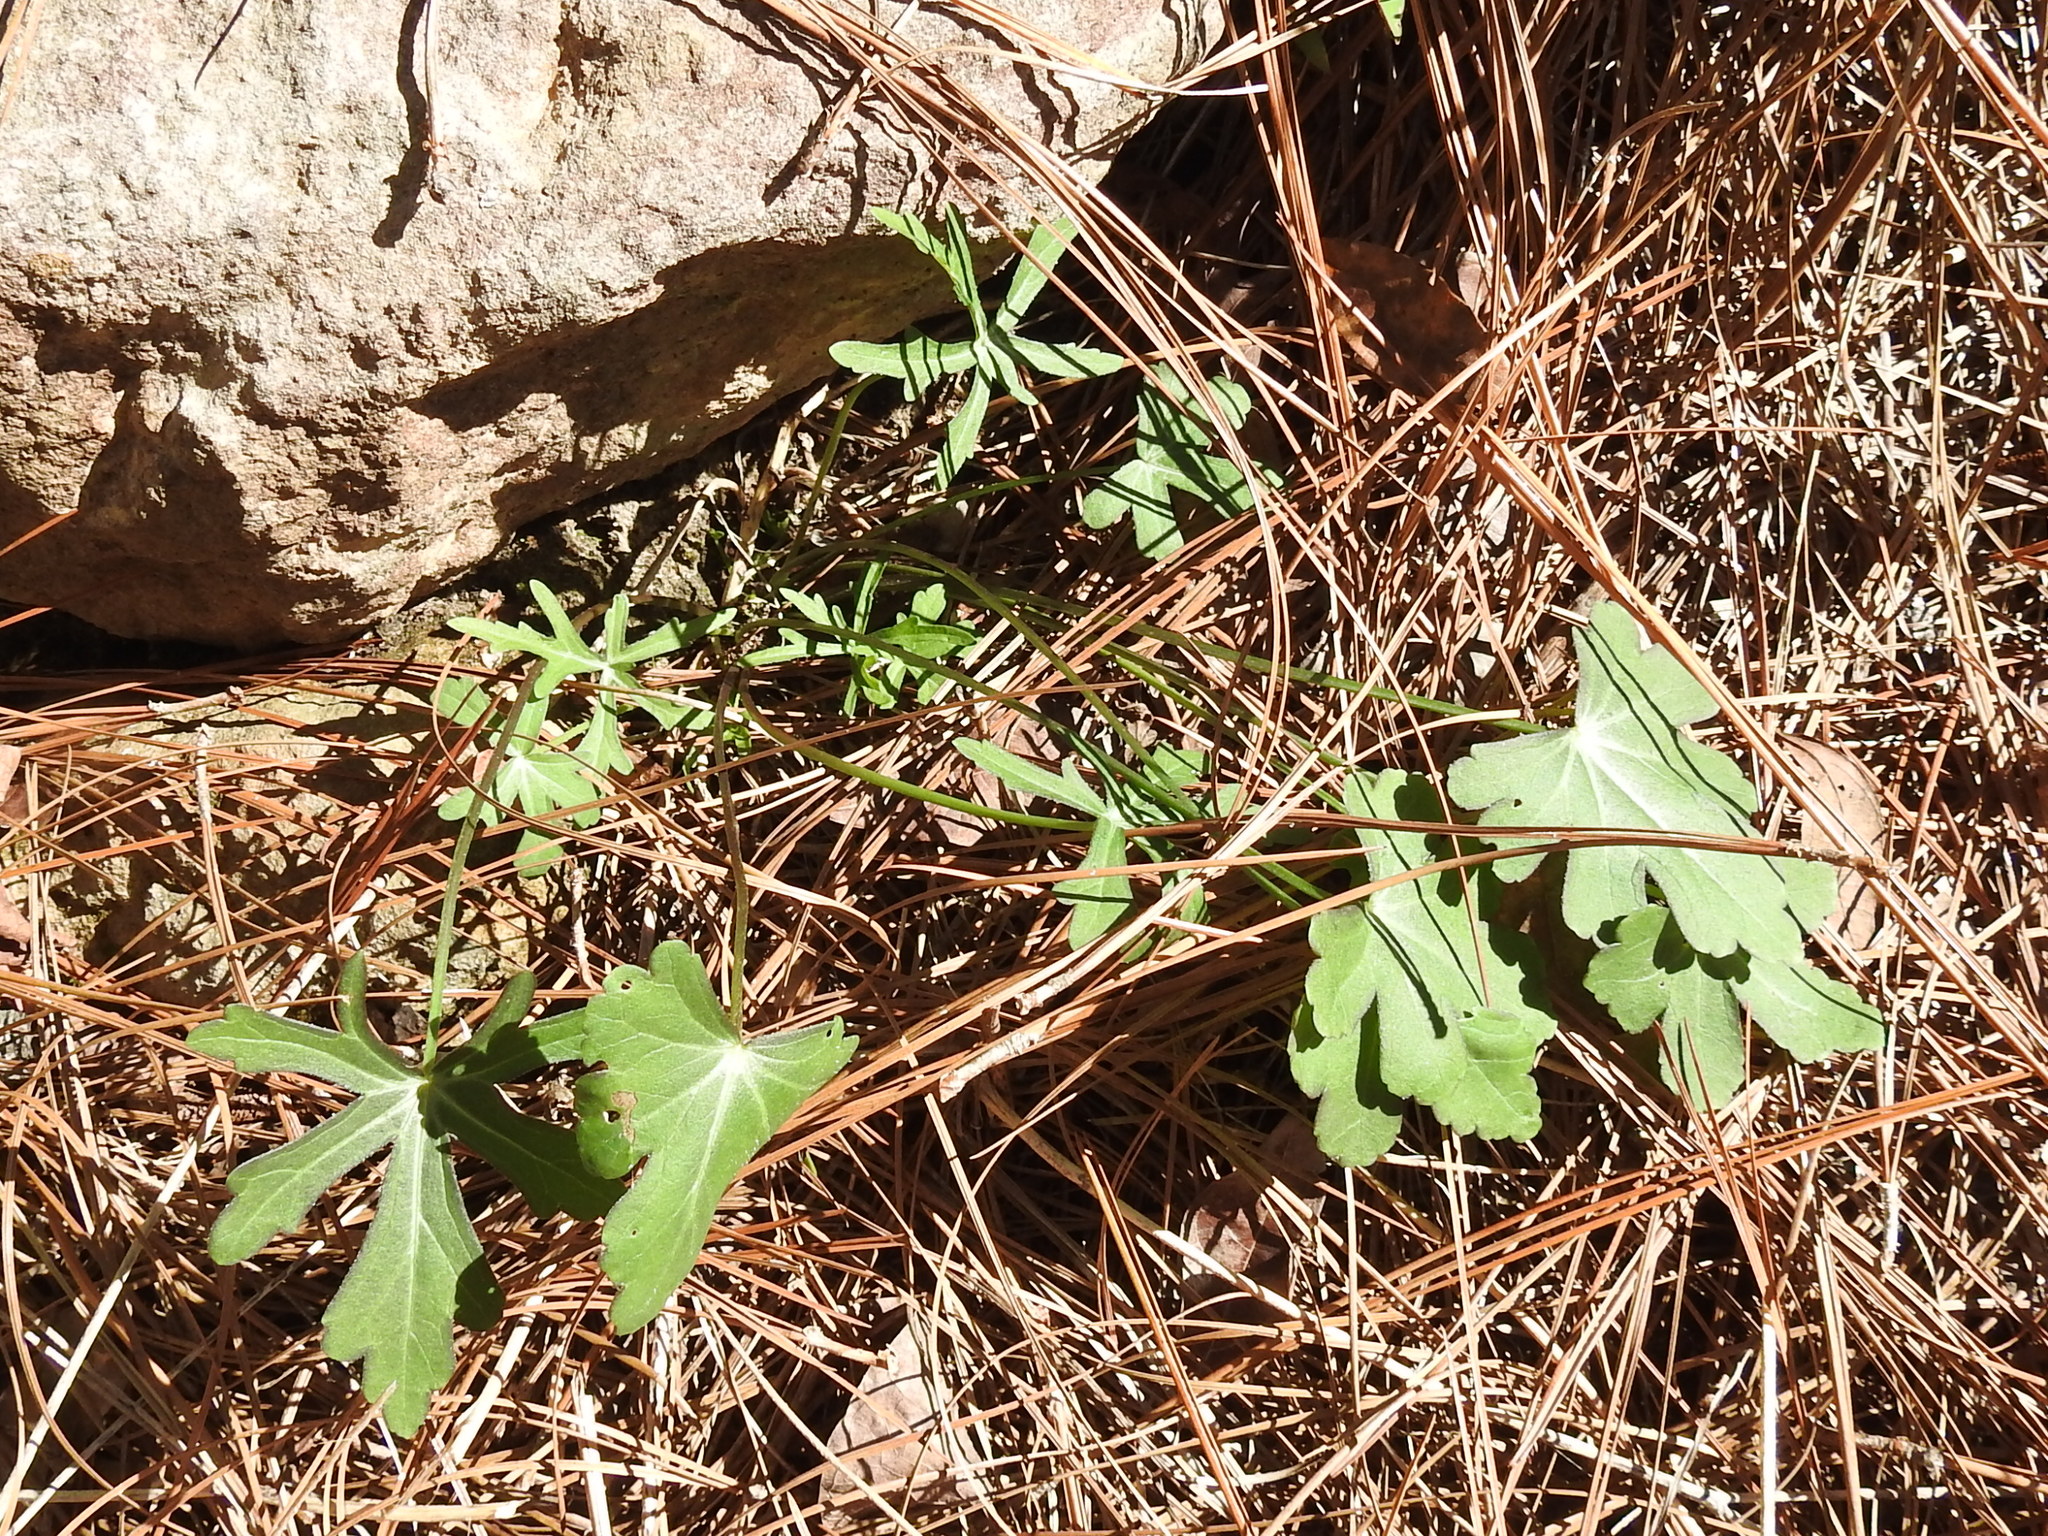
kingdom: Plantae
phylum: Tracheophyta
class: Magnoliopsida
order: Malvales
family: Malvaceae
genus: Callirhoe
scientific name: Callirhoe papaver
